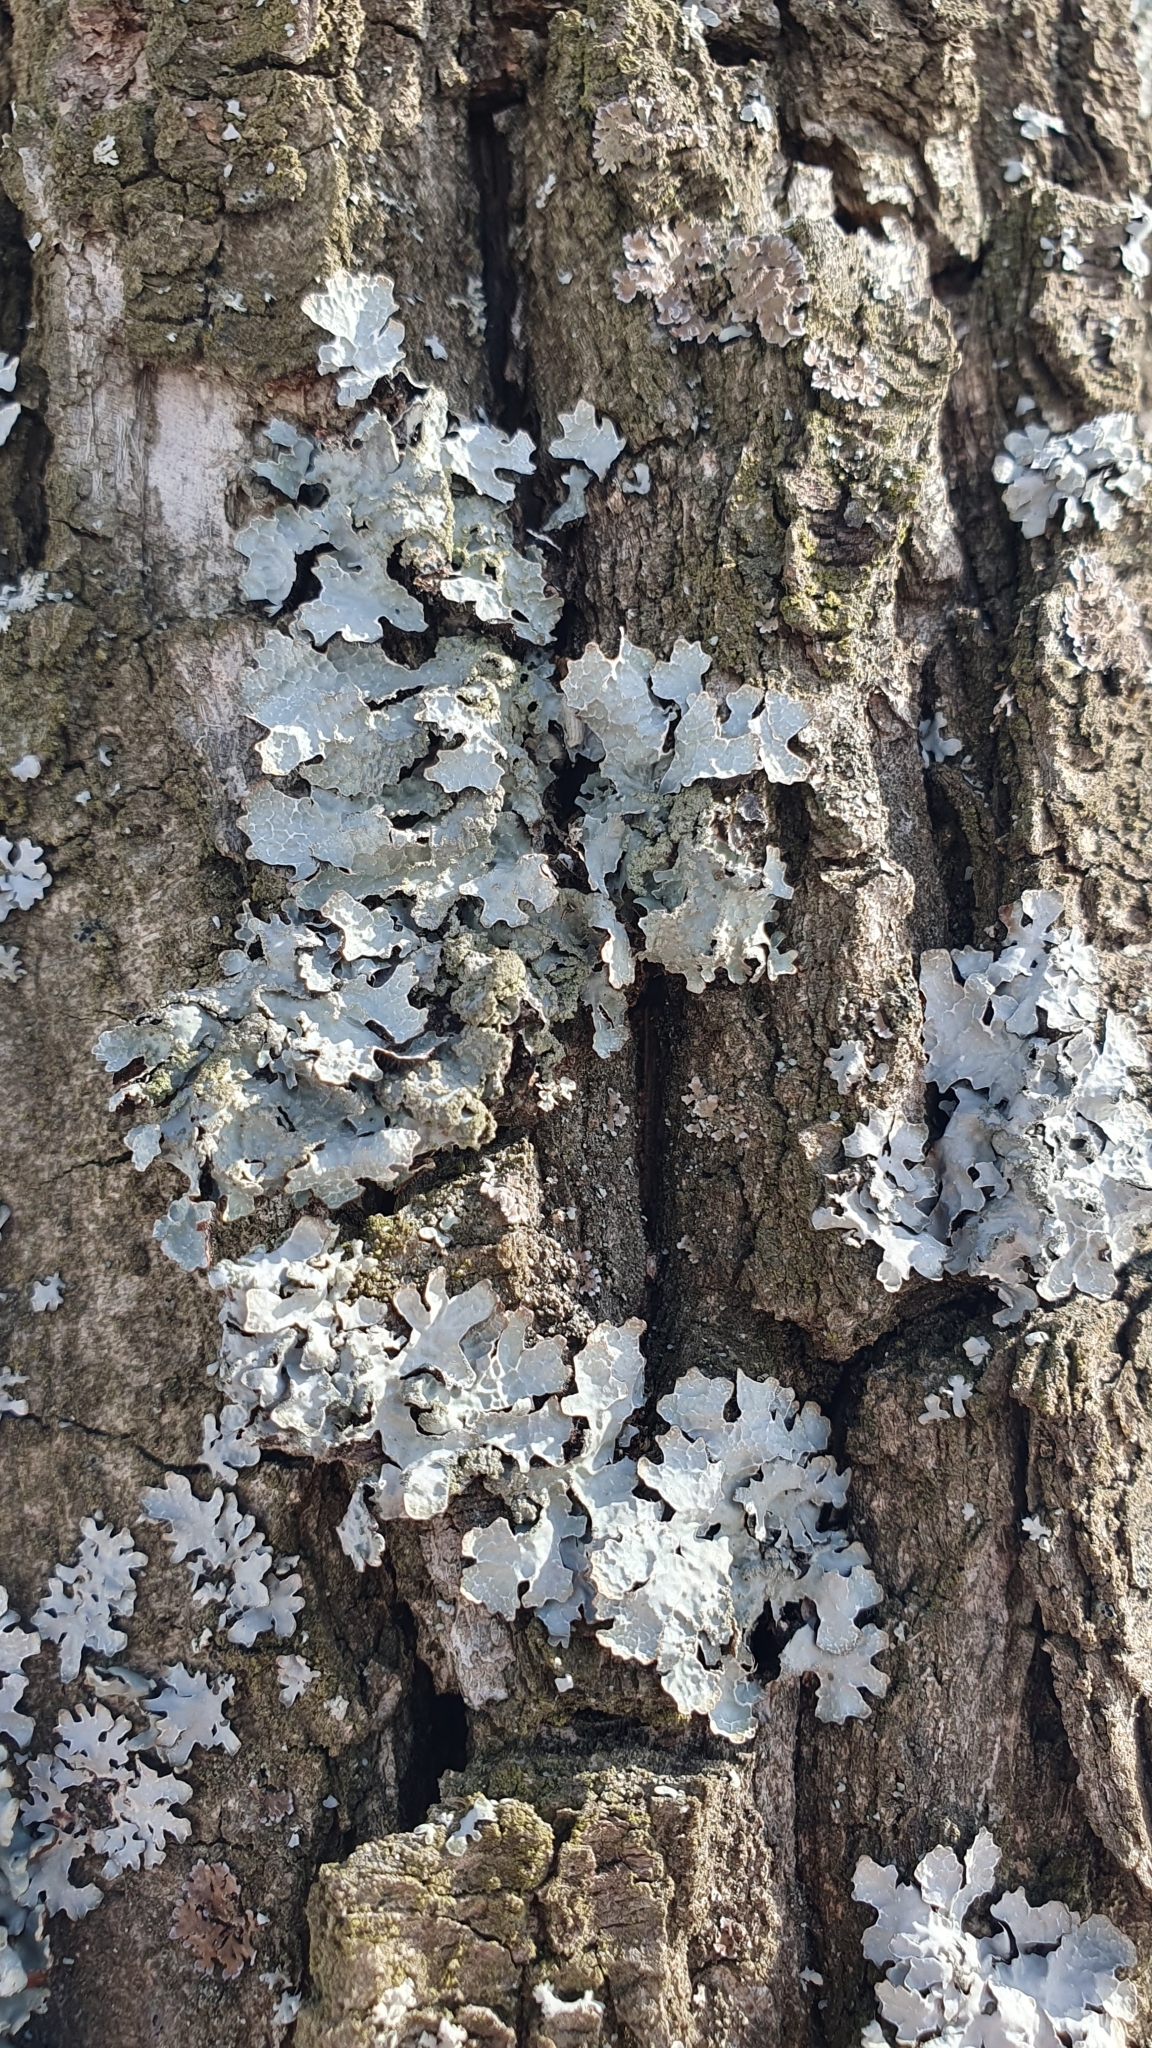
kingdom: Fungi
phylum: Ascomycota
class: Lecanoromycetes
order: Lecanorales
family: Parmeliaceae
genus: Parmelia
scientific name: Parmelia sulcata
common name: Netted shield lichen
